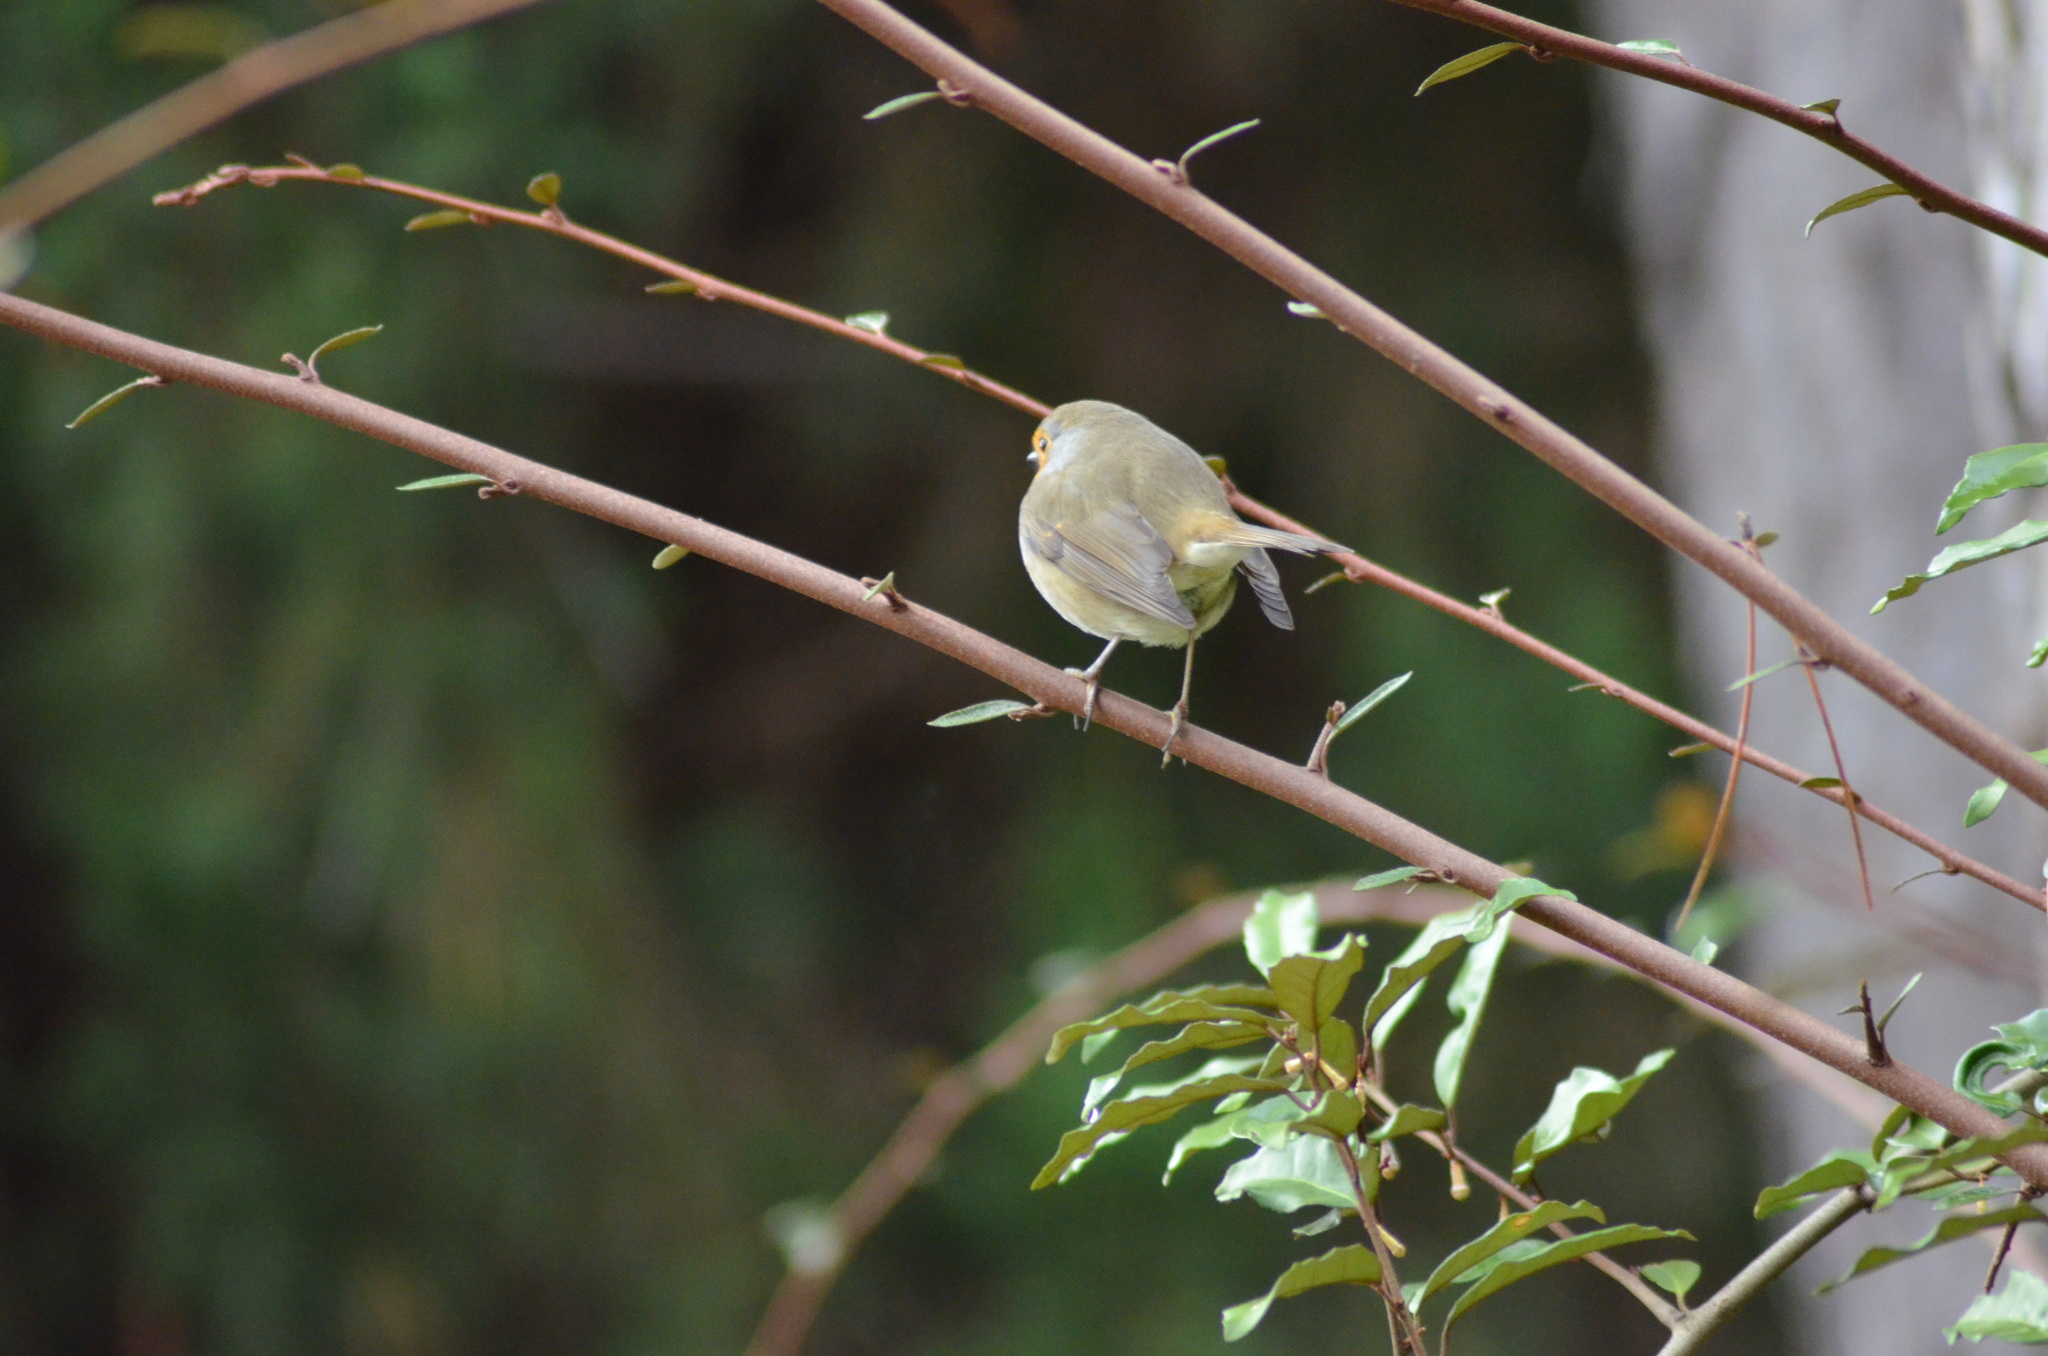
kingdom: Animalia
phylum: Chordata
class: Aves
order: Passeriformes
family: Muscicapidae
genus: Erithacus
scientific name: Erithacus rubecula
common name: European robin
